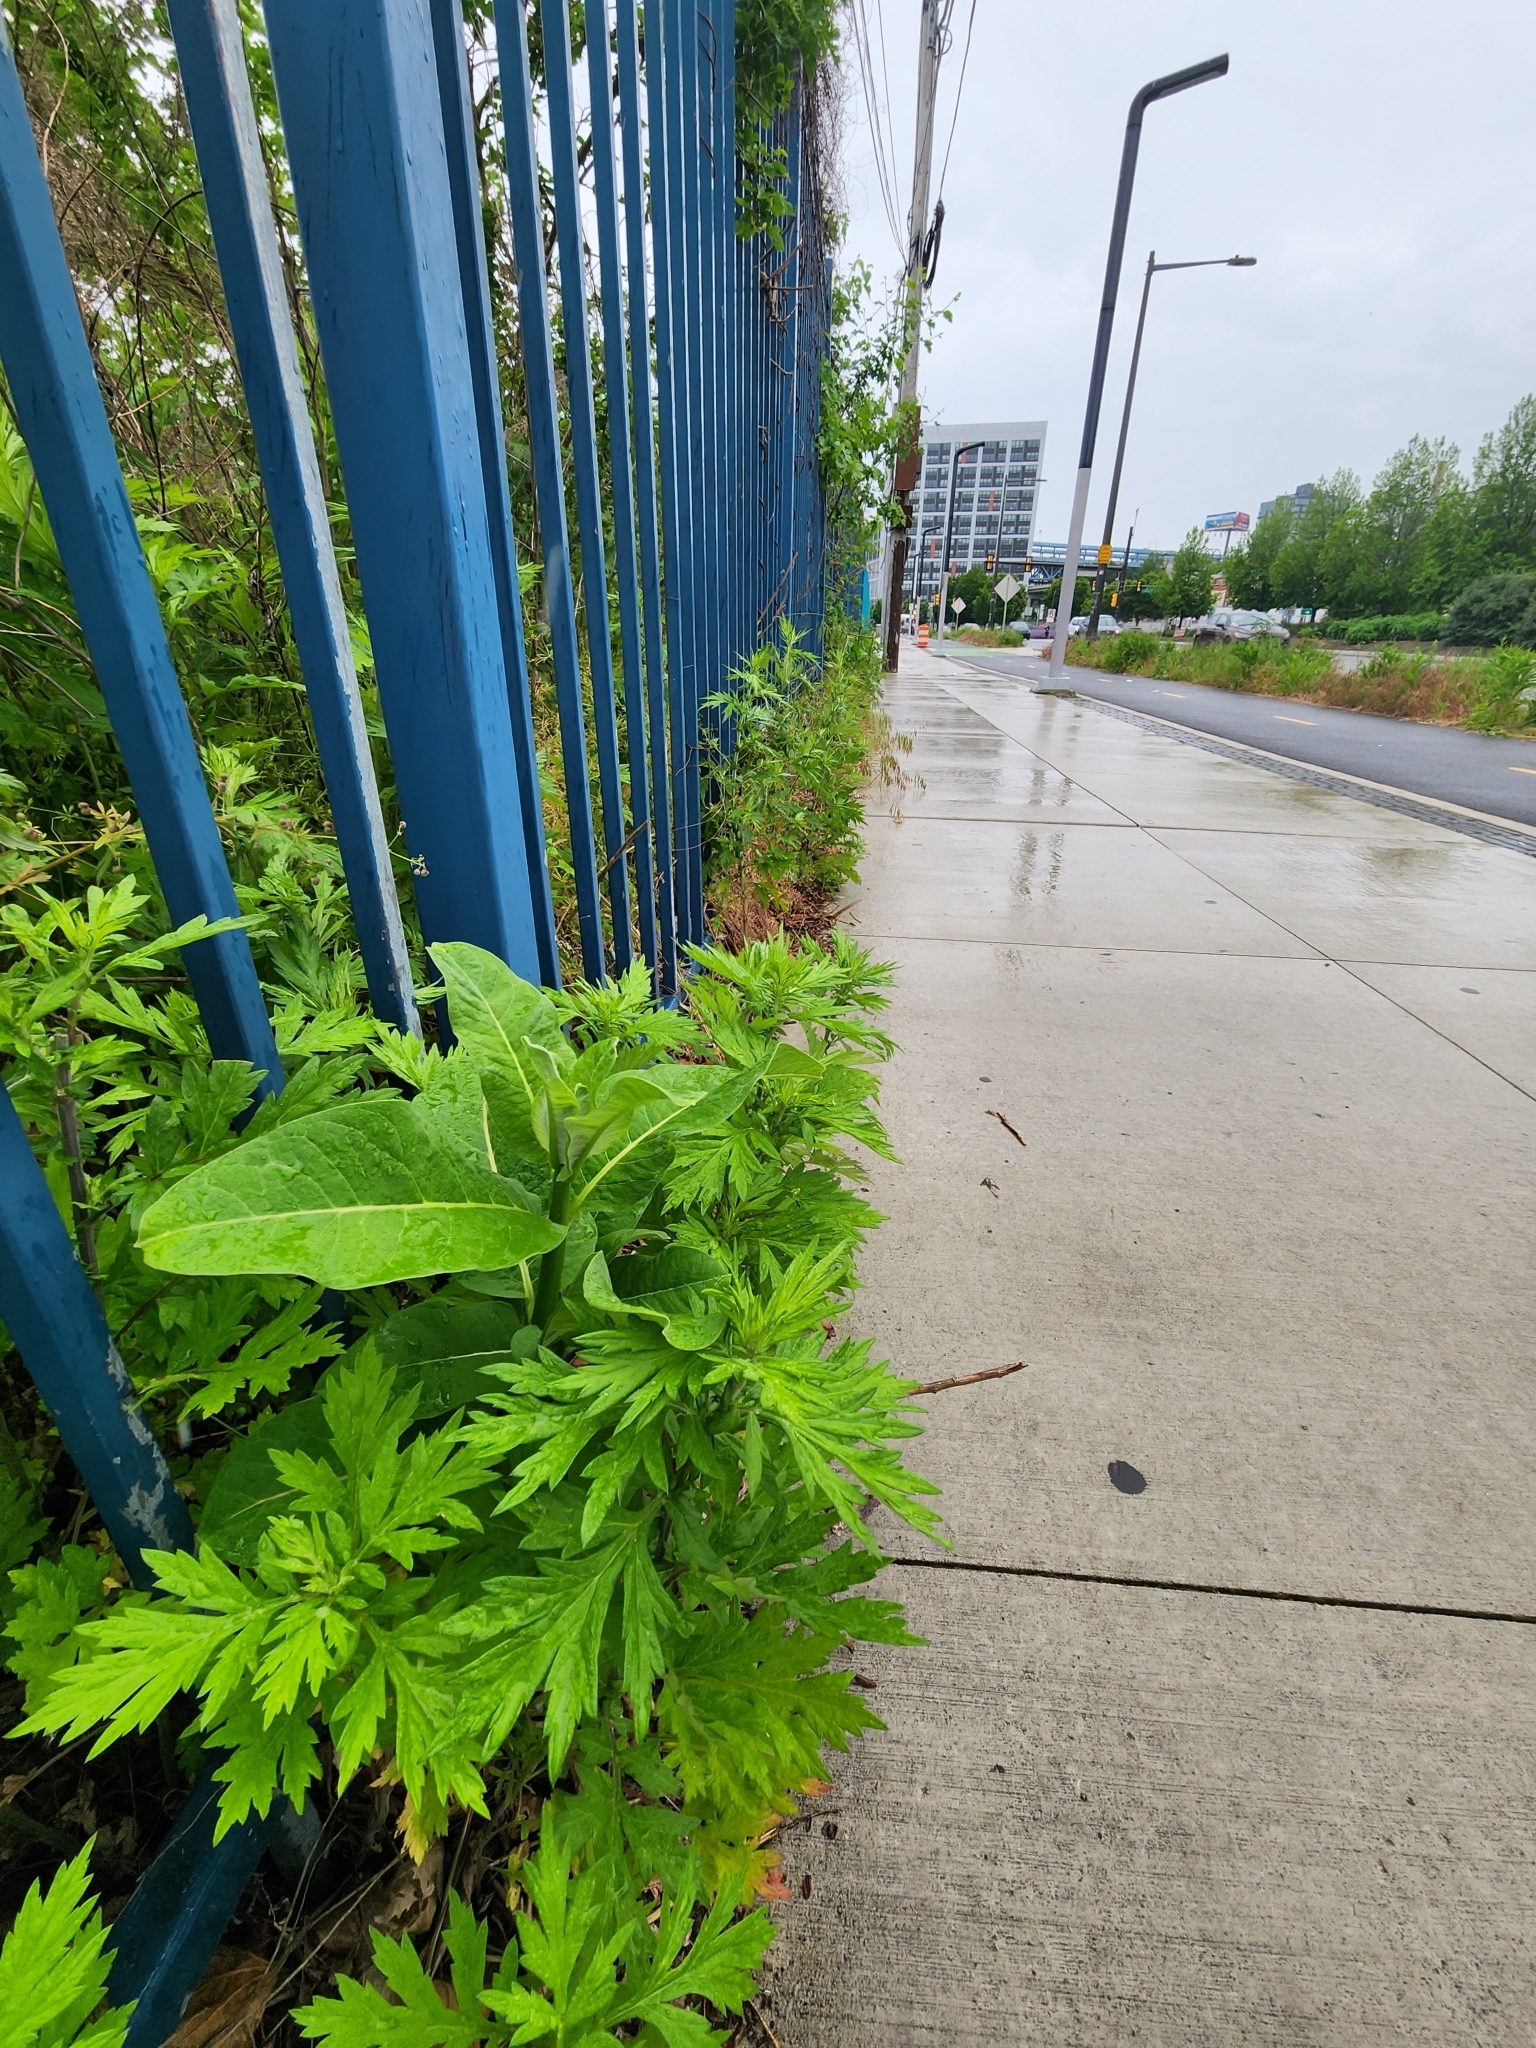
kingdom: Plantae
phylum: Tracheophyta
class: Magnoliopsida
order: Gentianales
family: Apocynaceae
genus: Asclepias
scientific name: Asclepias syriaca
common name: Common milkweed
